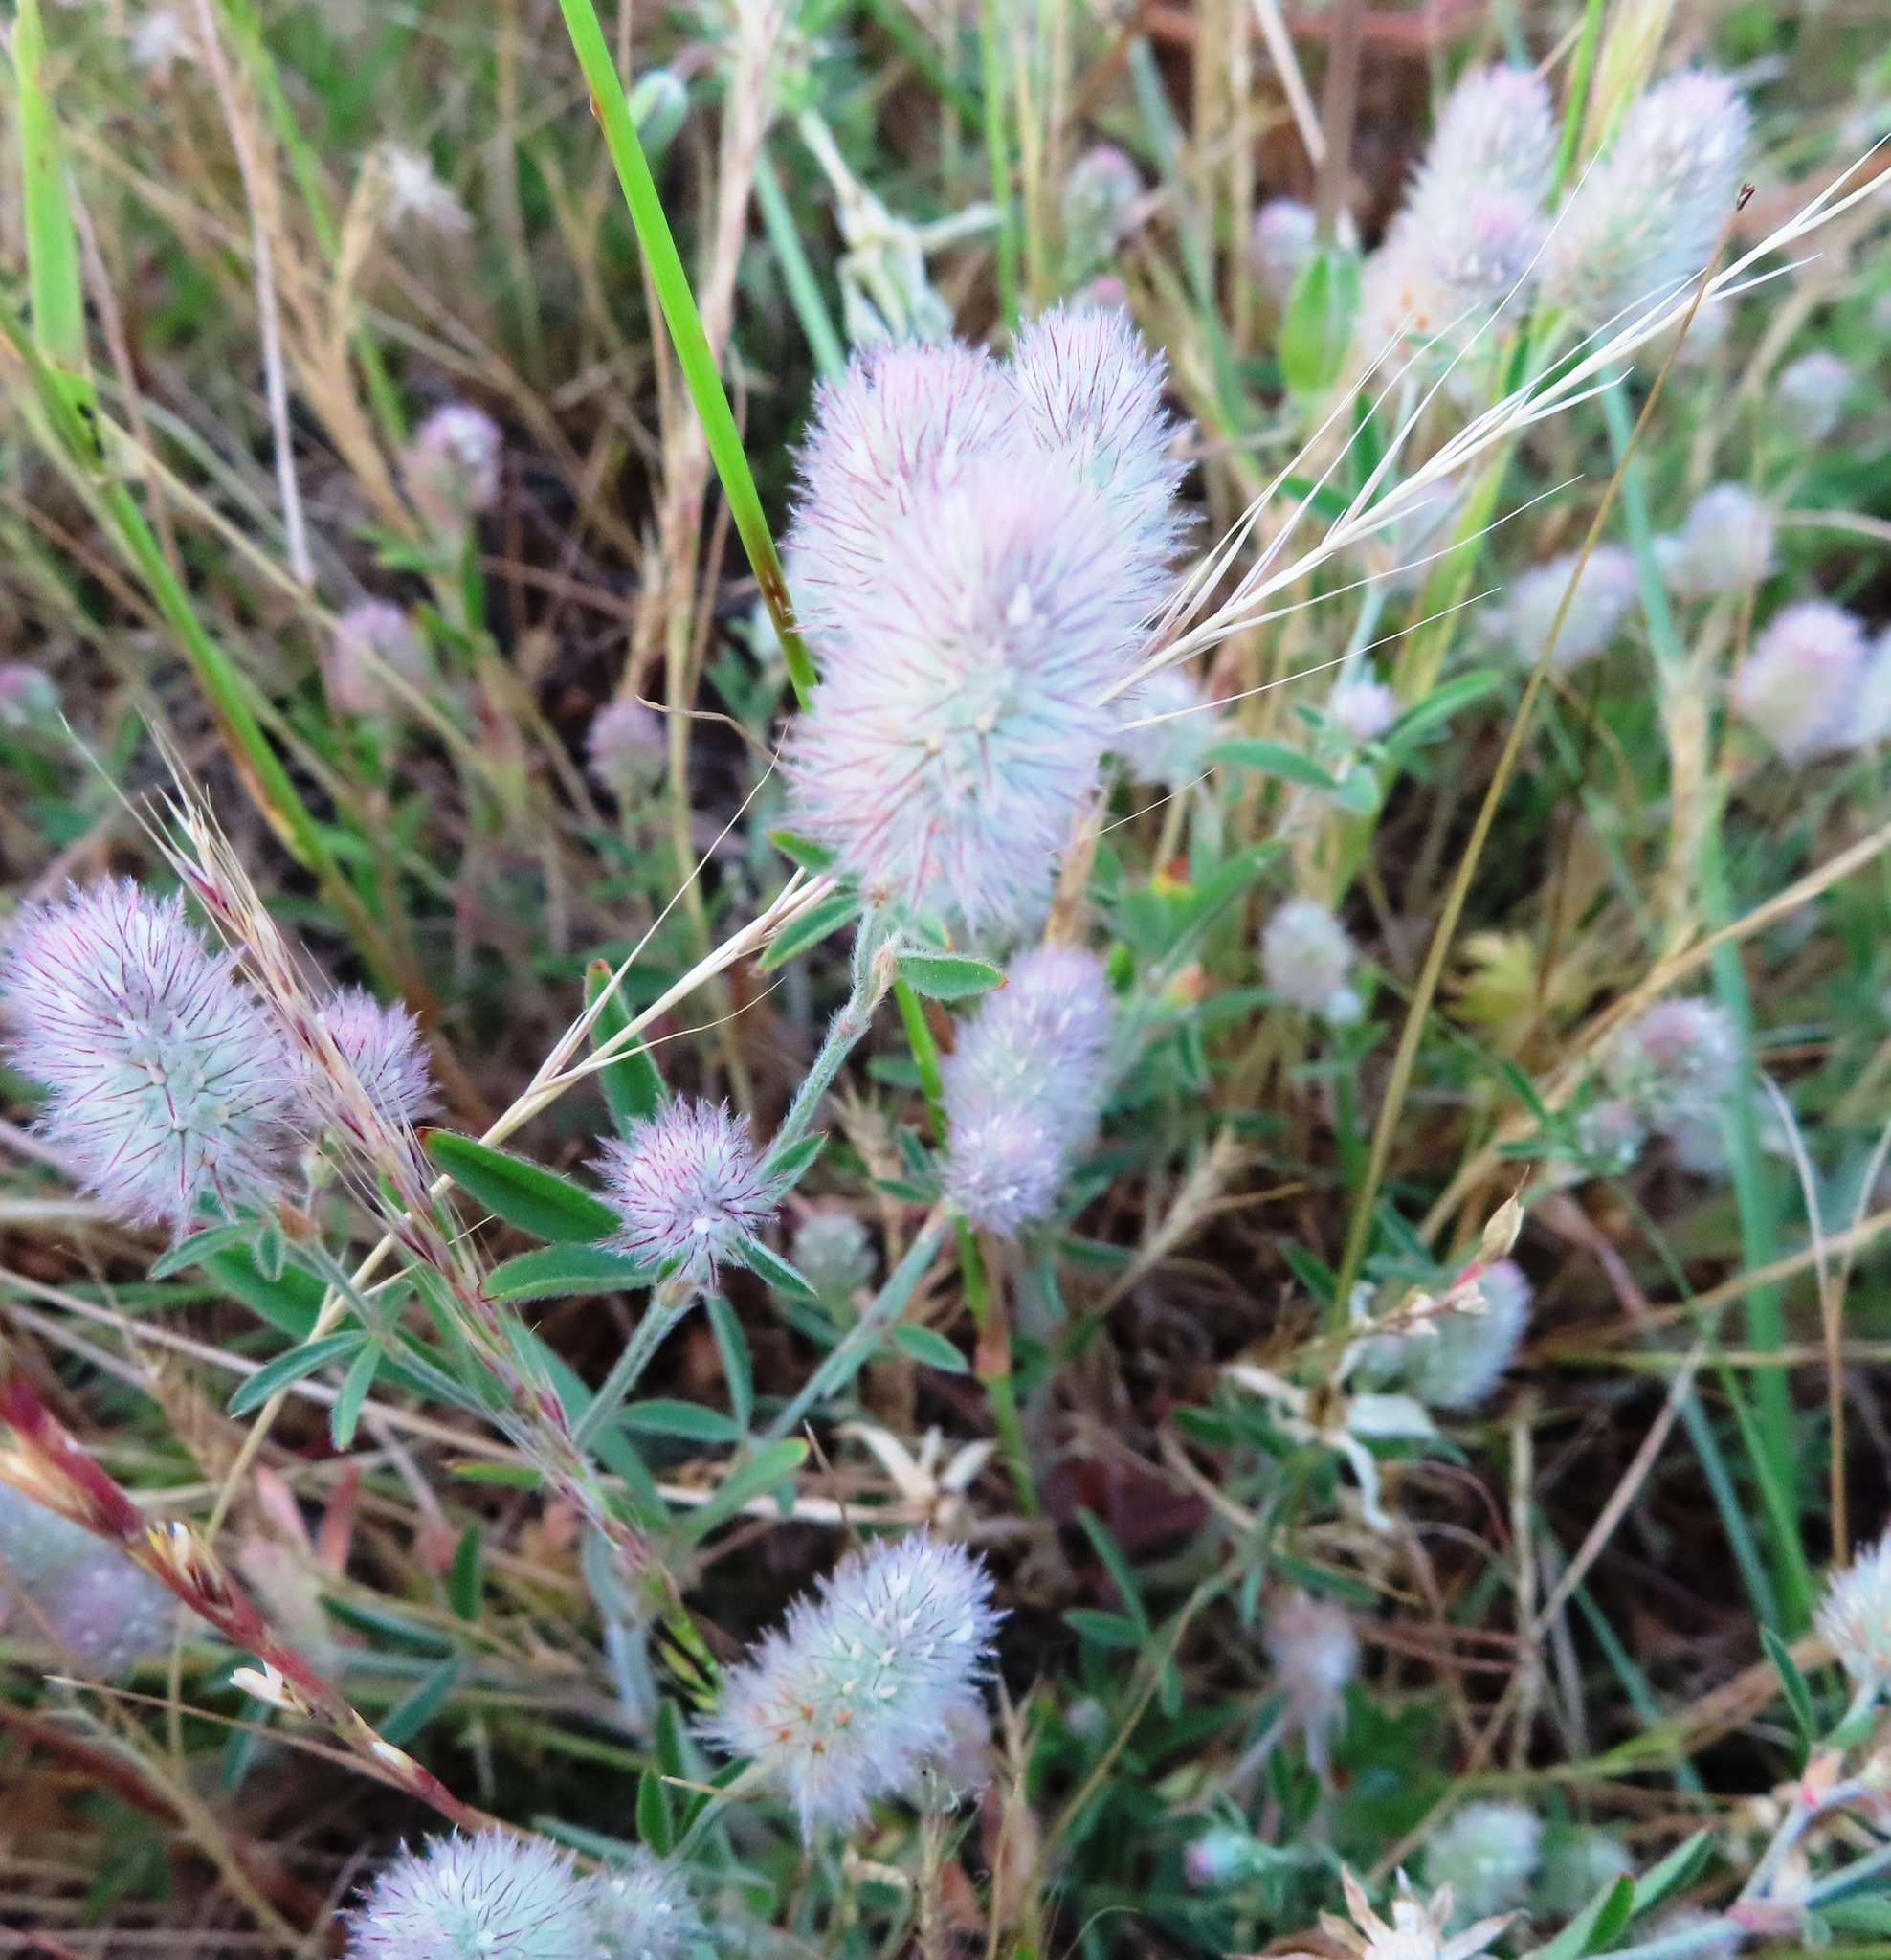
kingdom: Plantae
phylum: Tracheophyta
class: Magnoliopsida
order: Fabales
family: Fabaceae
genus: Trifolium
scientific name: Trifolium arvense
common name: Hare's-foot clover
